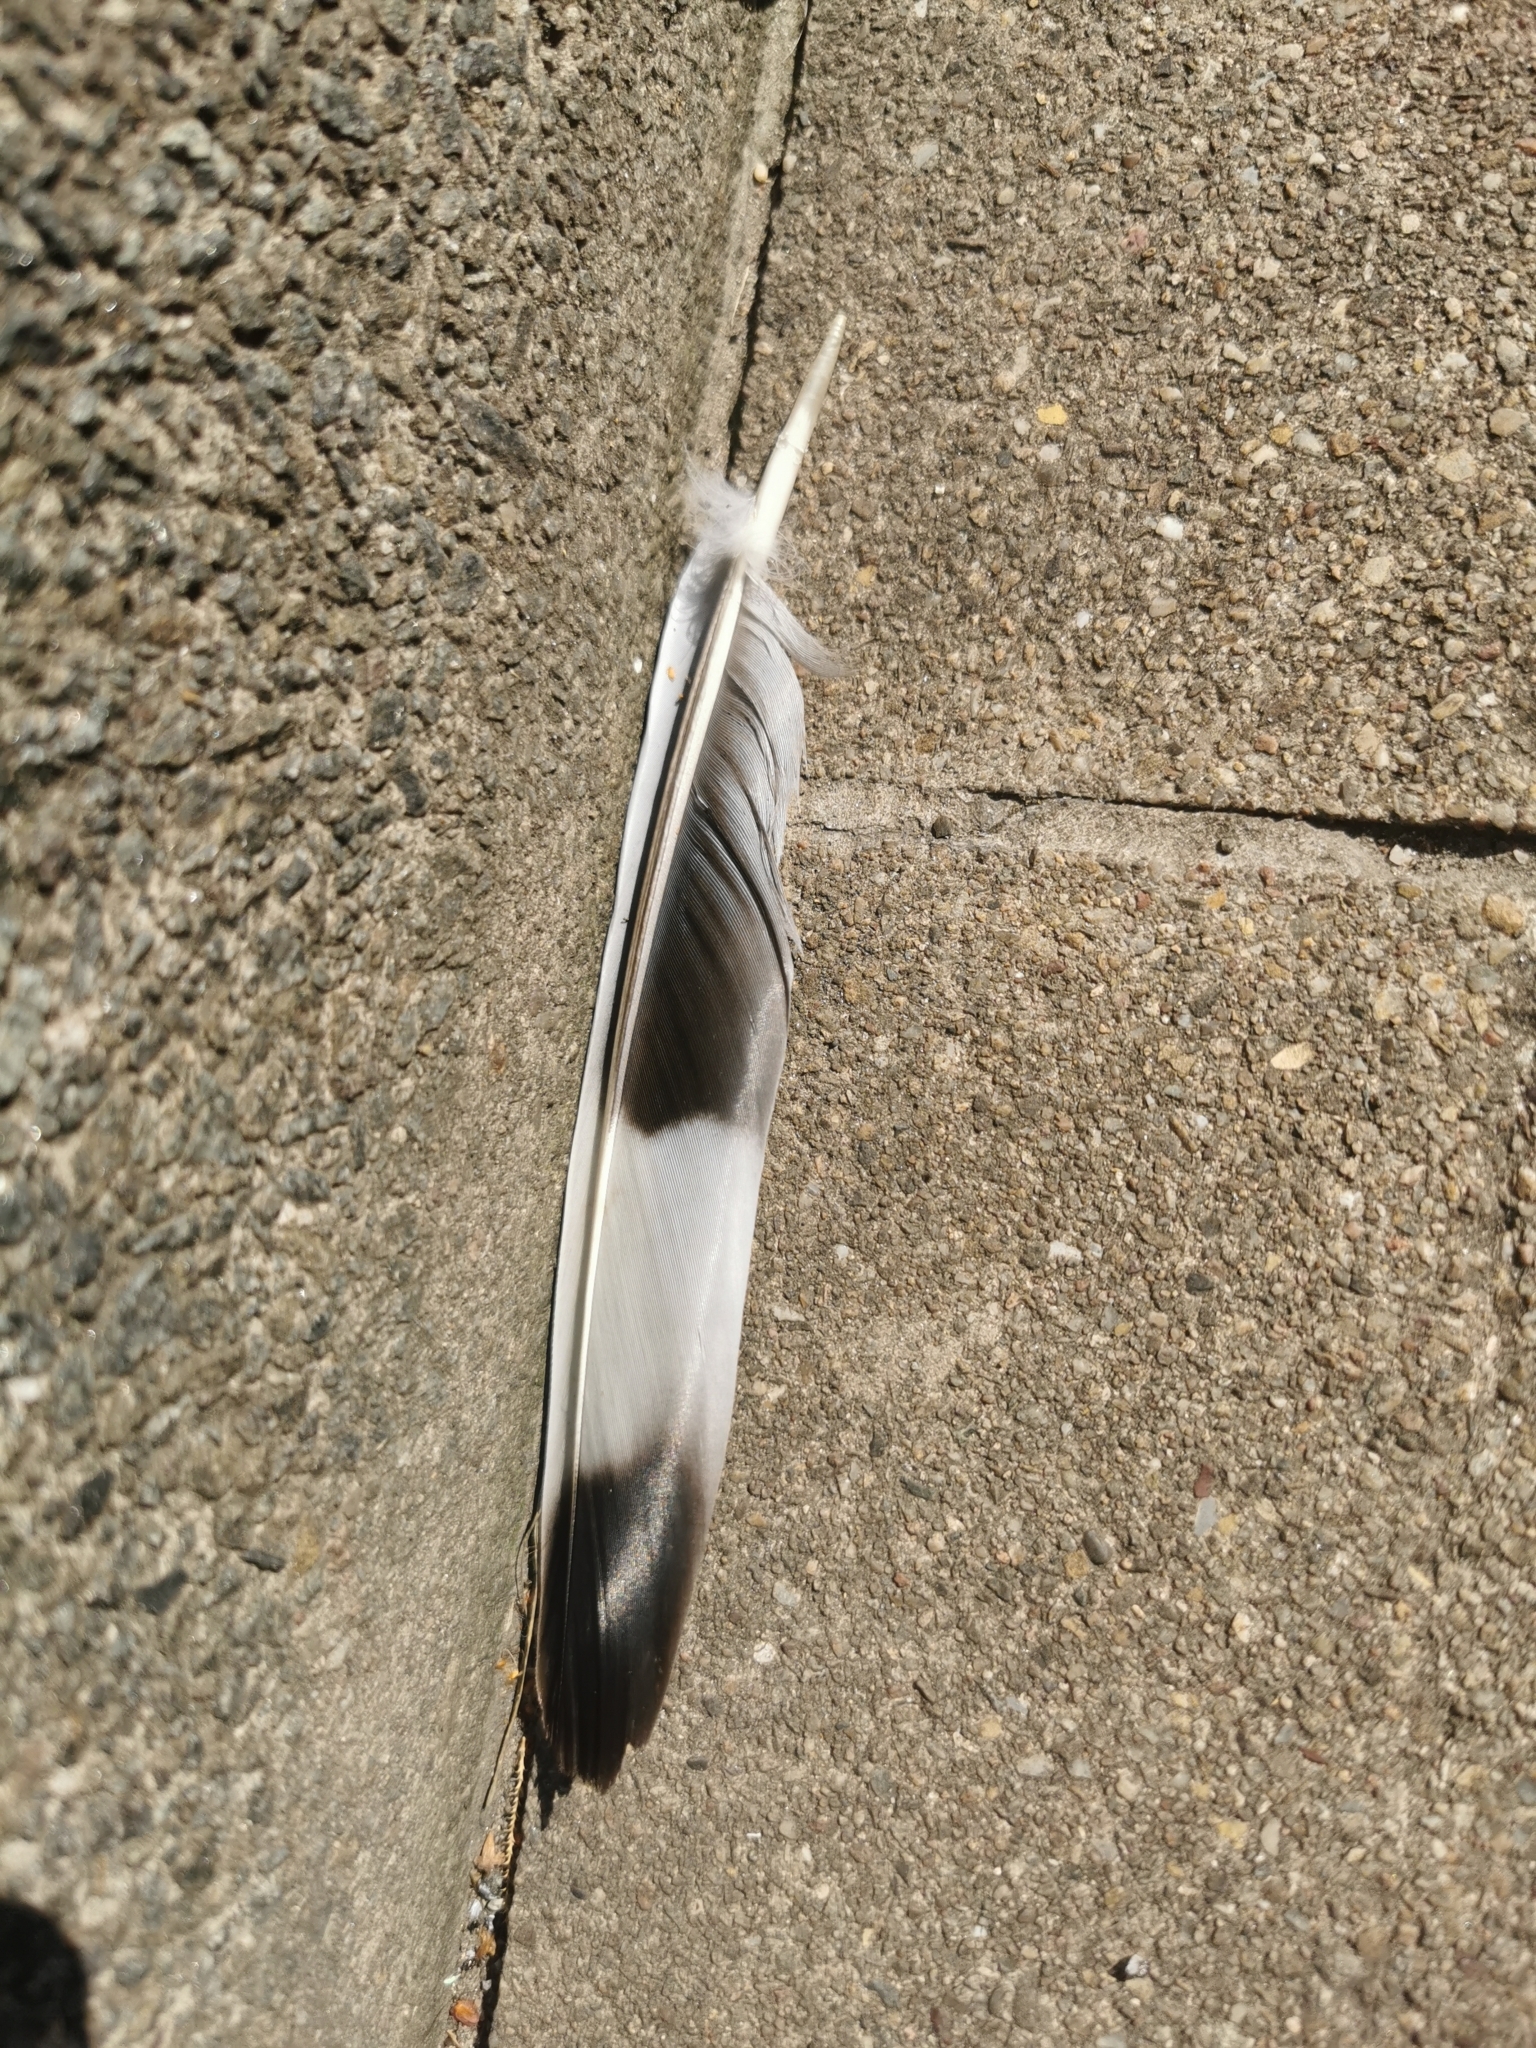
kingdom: Animalia
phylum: Chordata
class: Aves
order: Columbiformes
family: Columbidae
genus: Columba
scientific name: Columba palumbus
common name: Common wood pigeon
